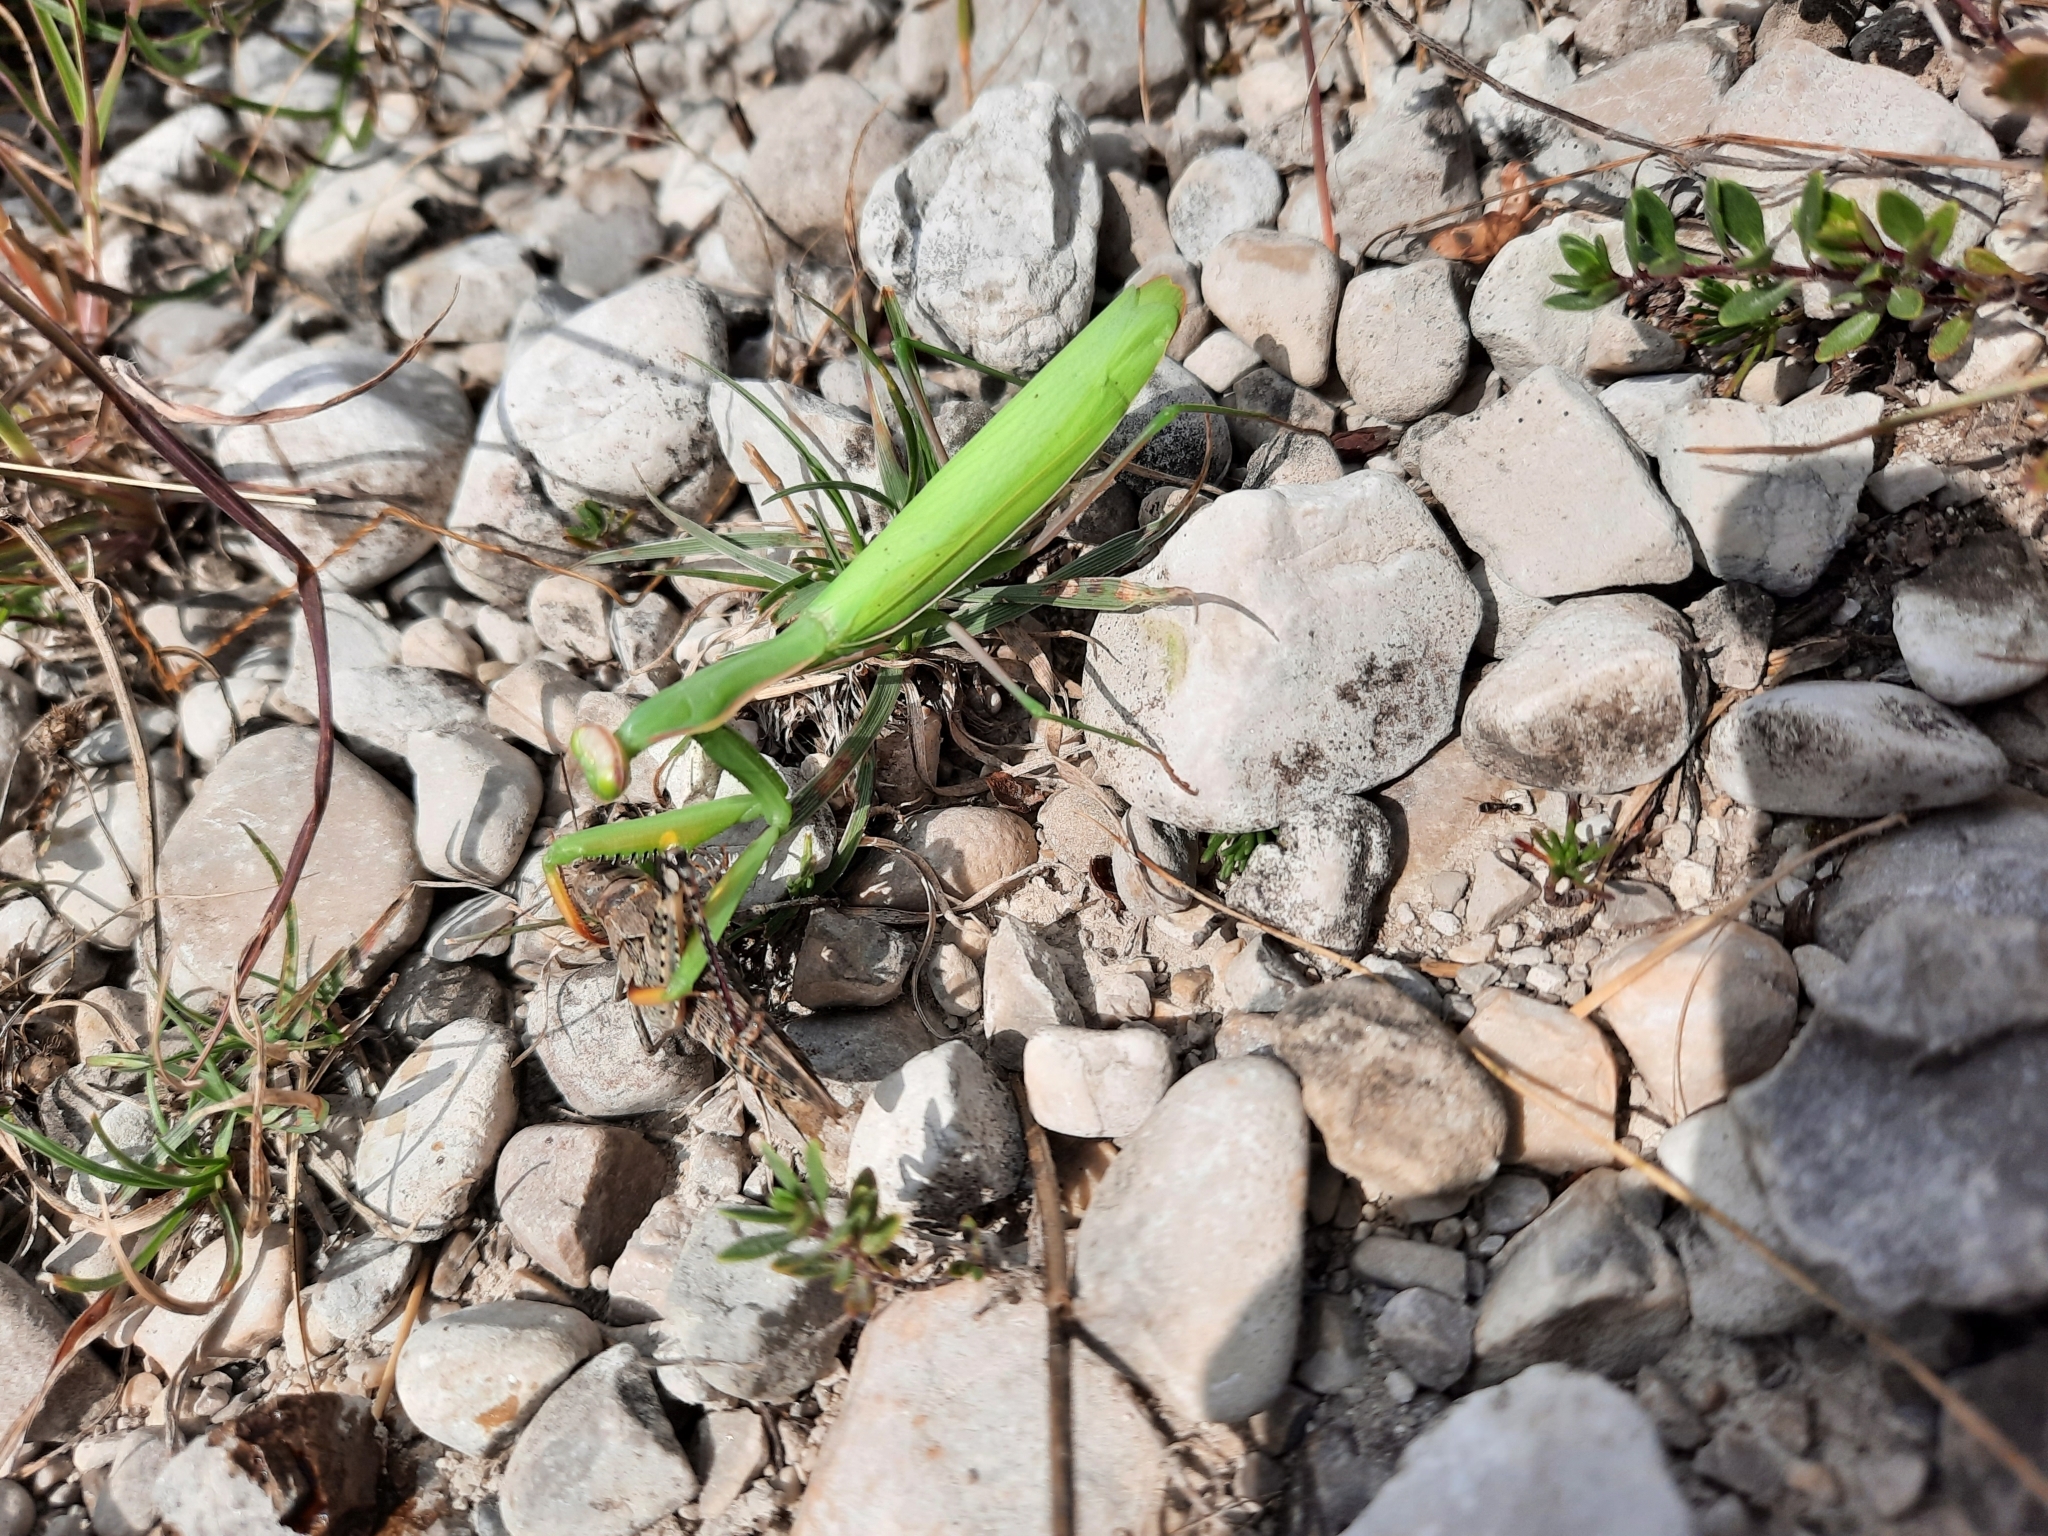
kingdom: Animalia
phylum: Arthropoda
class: Insecta
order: Mantodea
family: Mantidae
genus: Mantis
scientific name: Mantis religiosa
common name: Praying mantis
